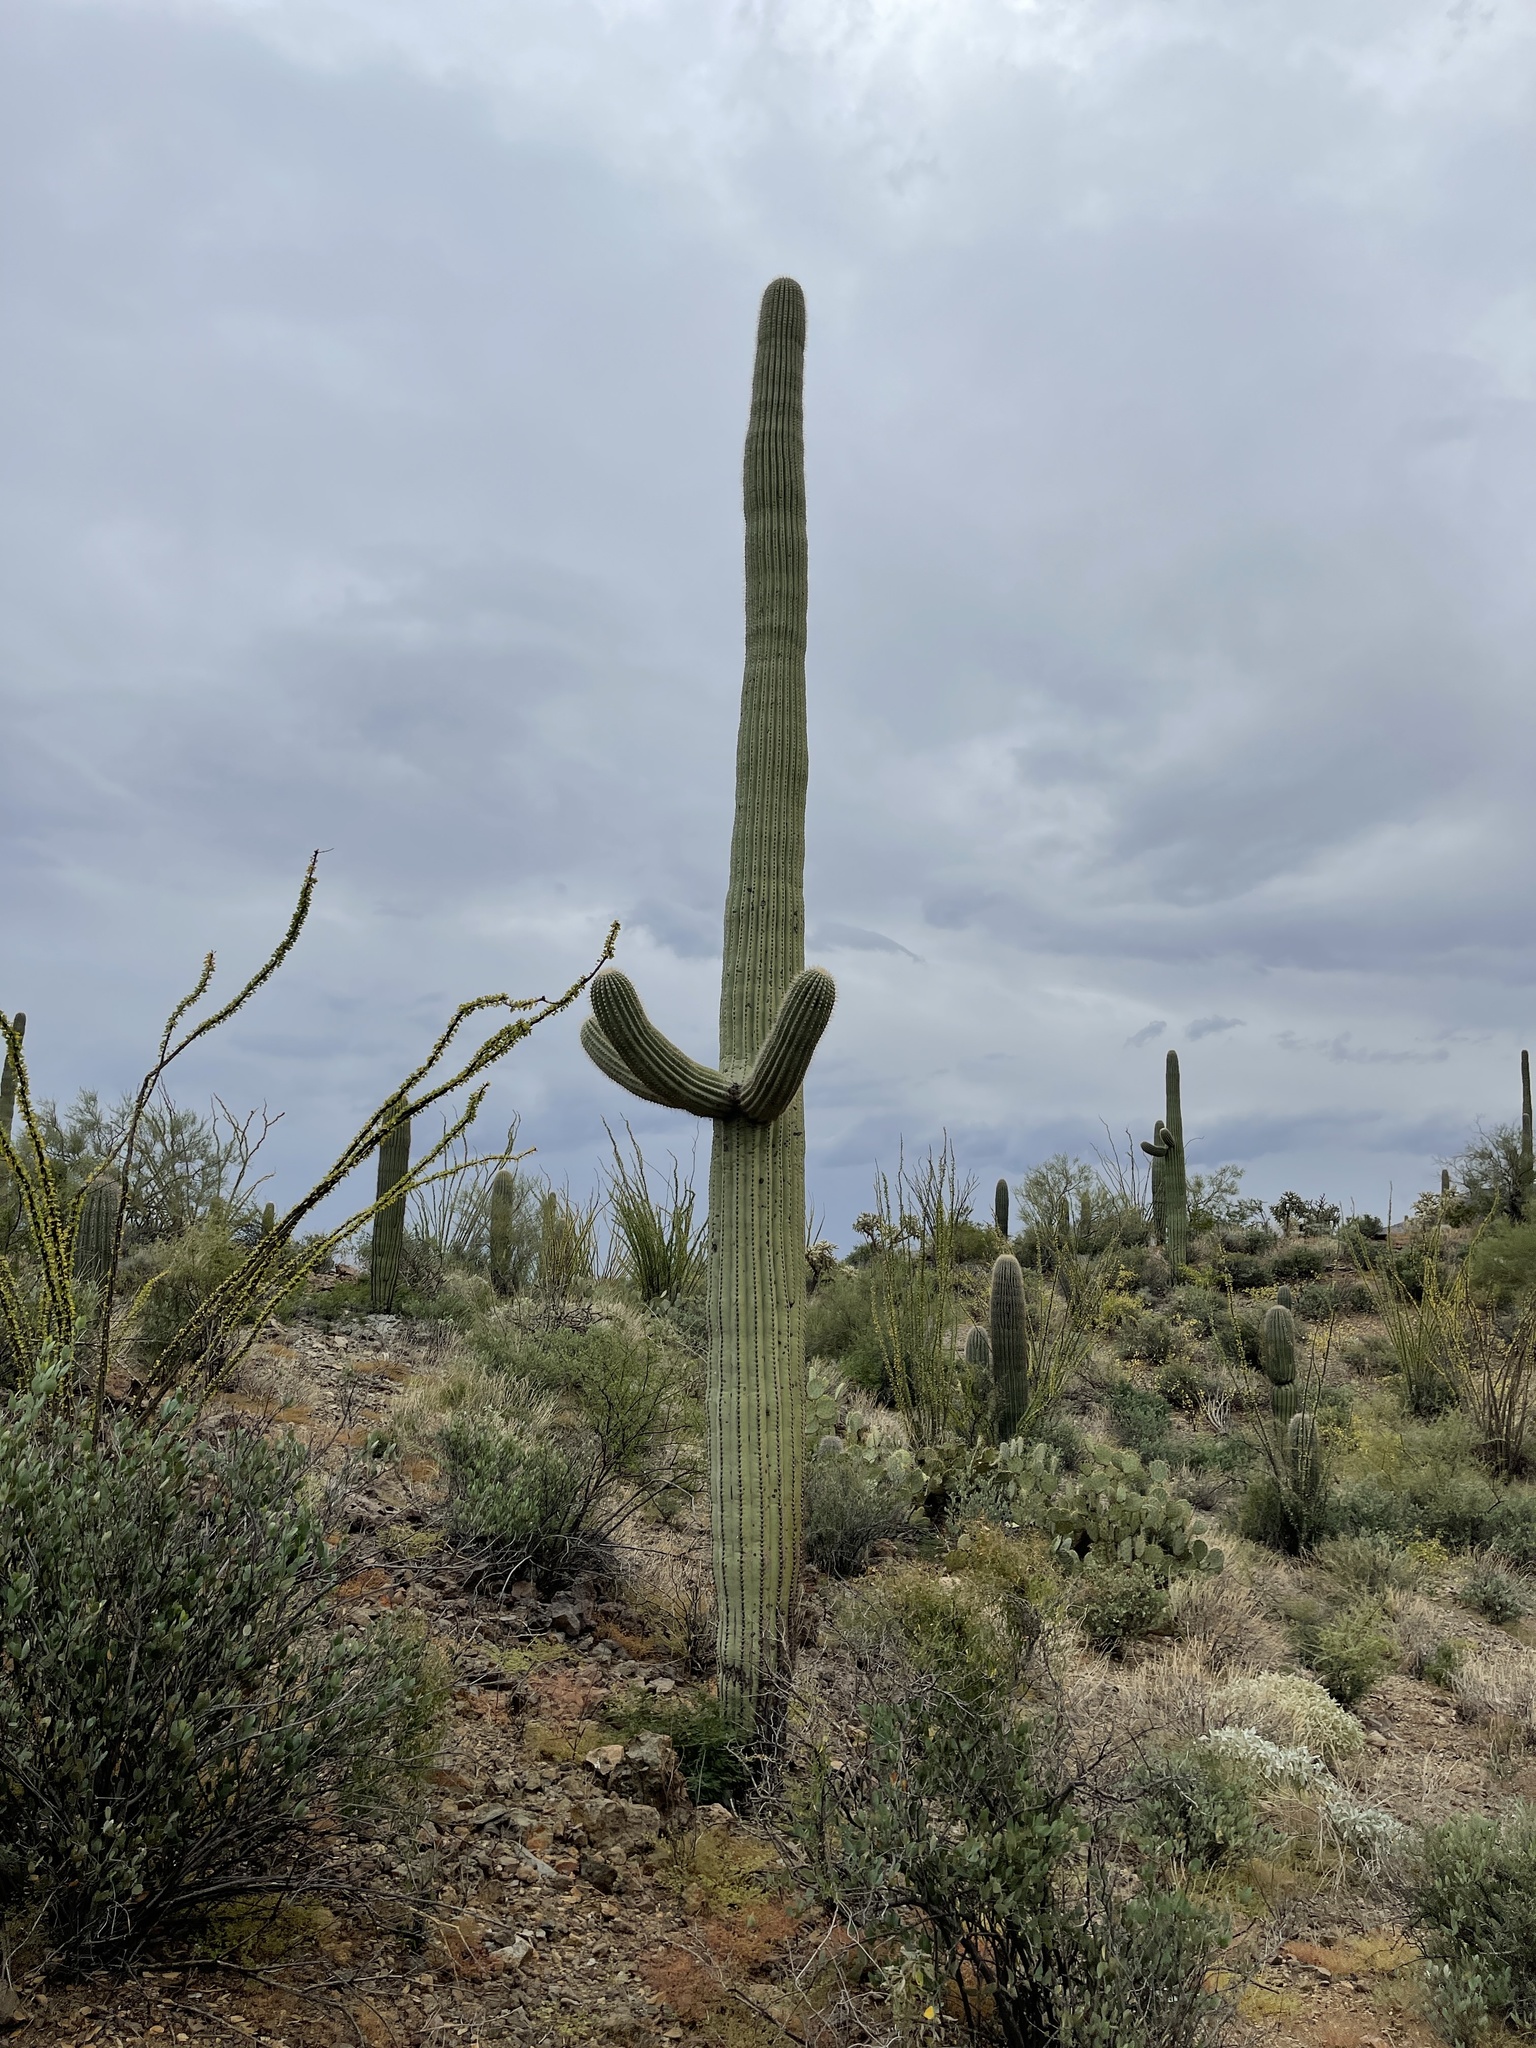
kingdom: Plantae
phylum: Tracheophyta
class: Magnoliopsida
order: Caryophyllales
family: Cactaceae
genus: Carnegiea
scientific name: Carnegiea gigantea
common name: Saguaro
